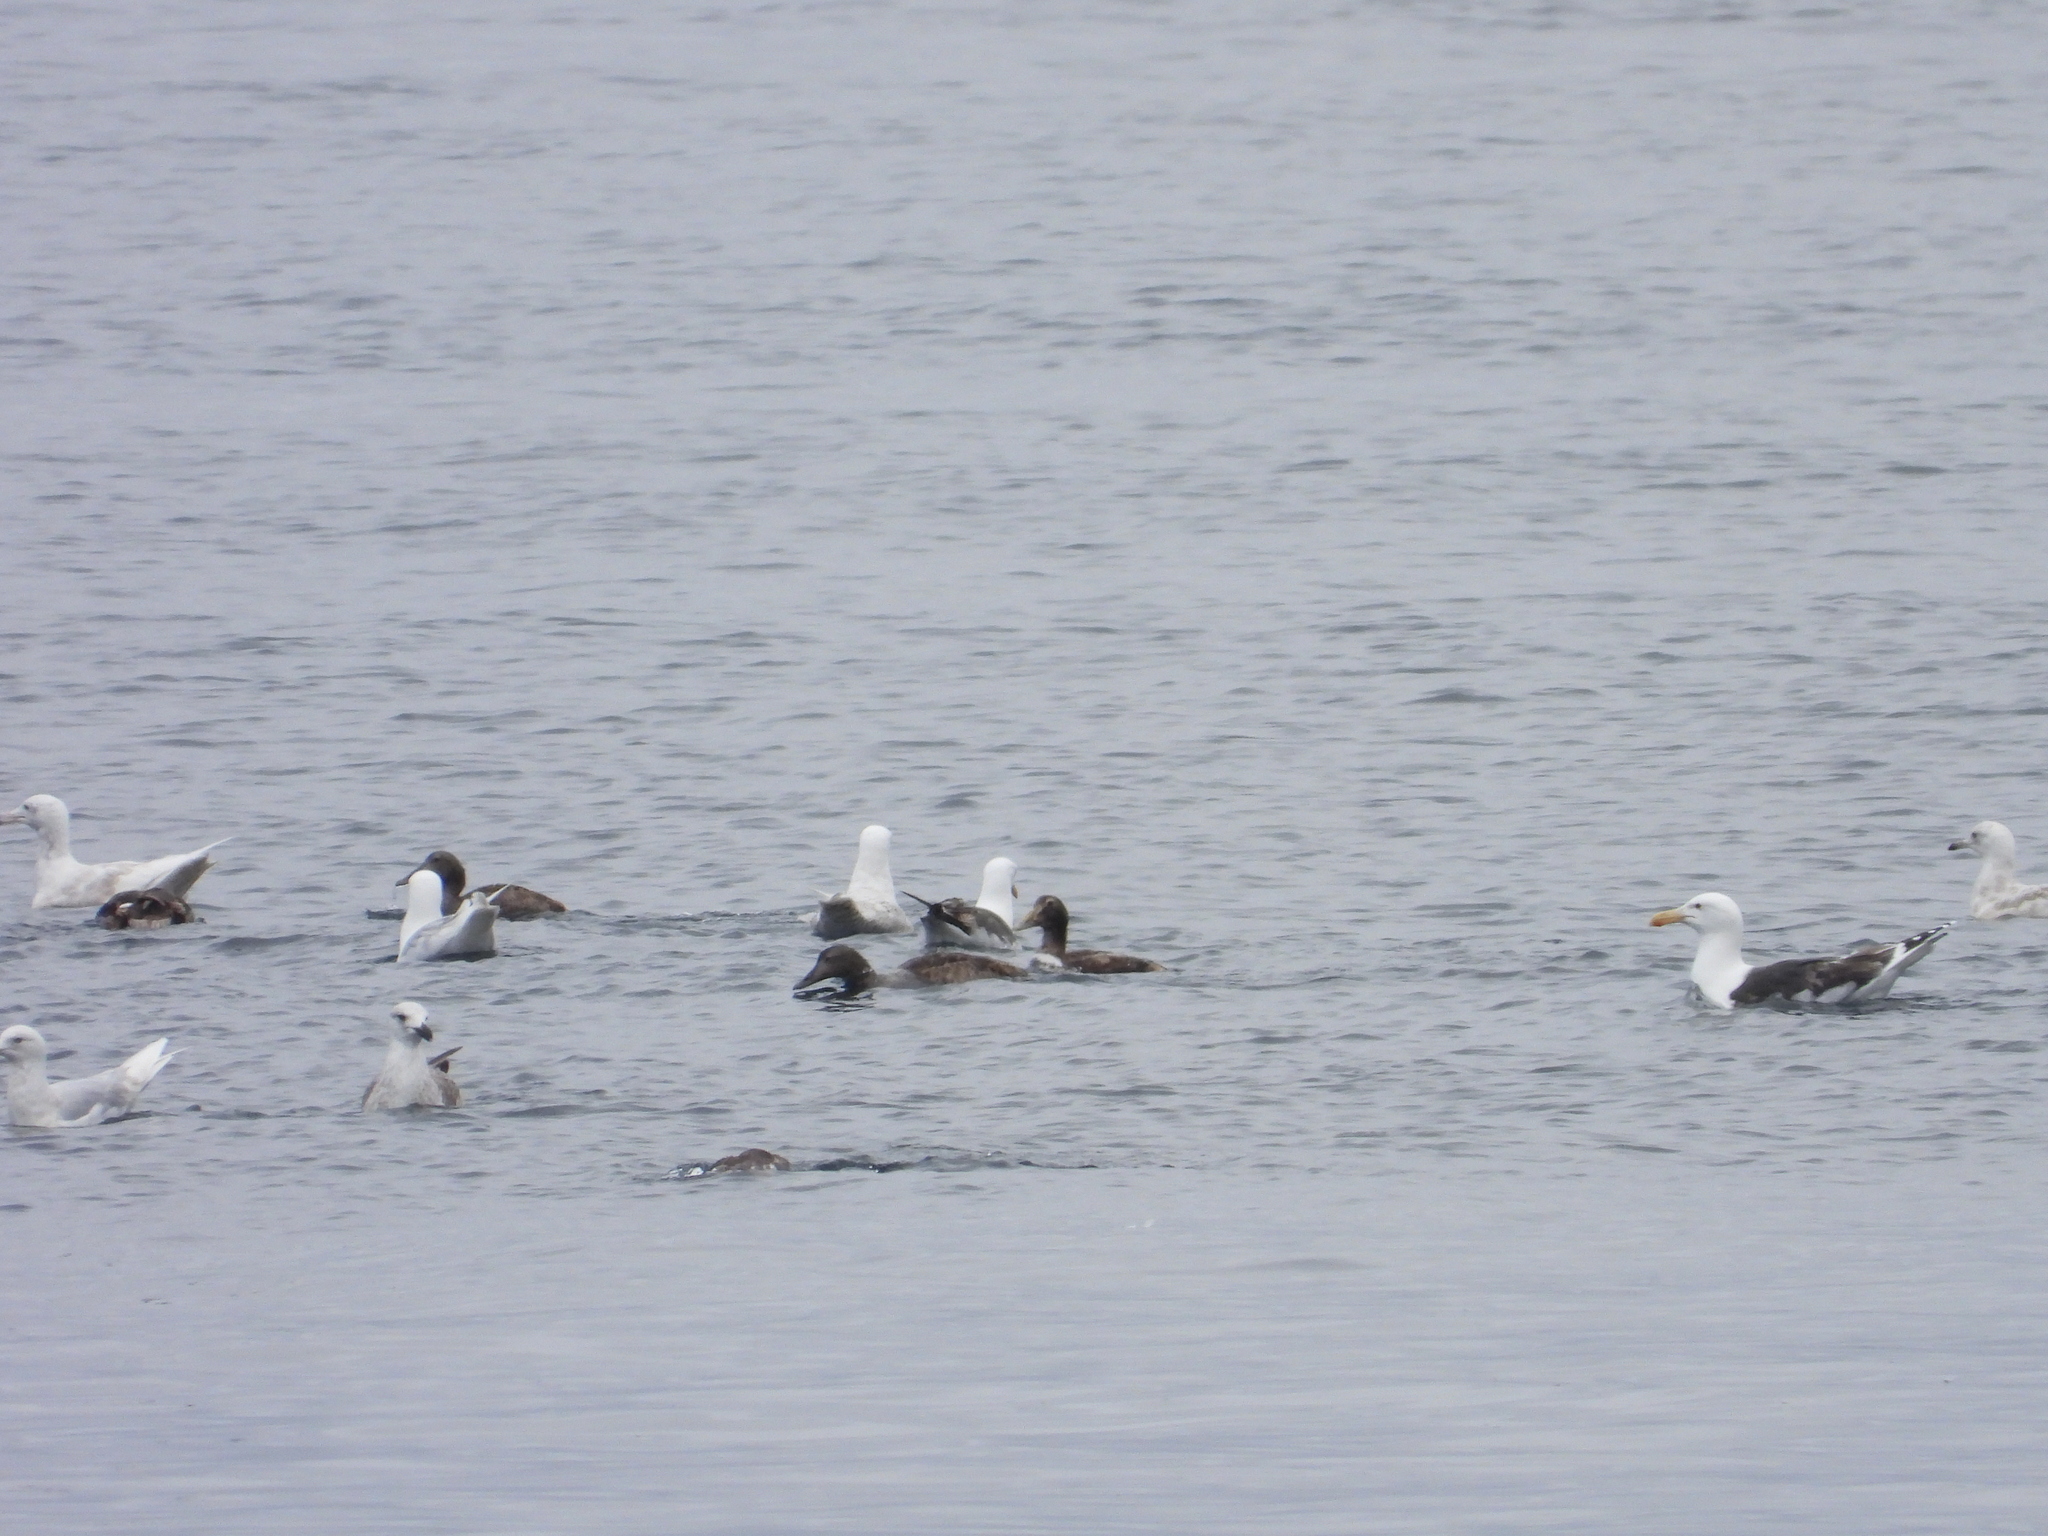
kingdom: Animalia
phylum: Chordata
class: Aves
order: Anseriformes
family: Anatidae
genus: Somateria
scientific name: Somateria mollissima
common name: Common eider
